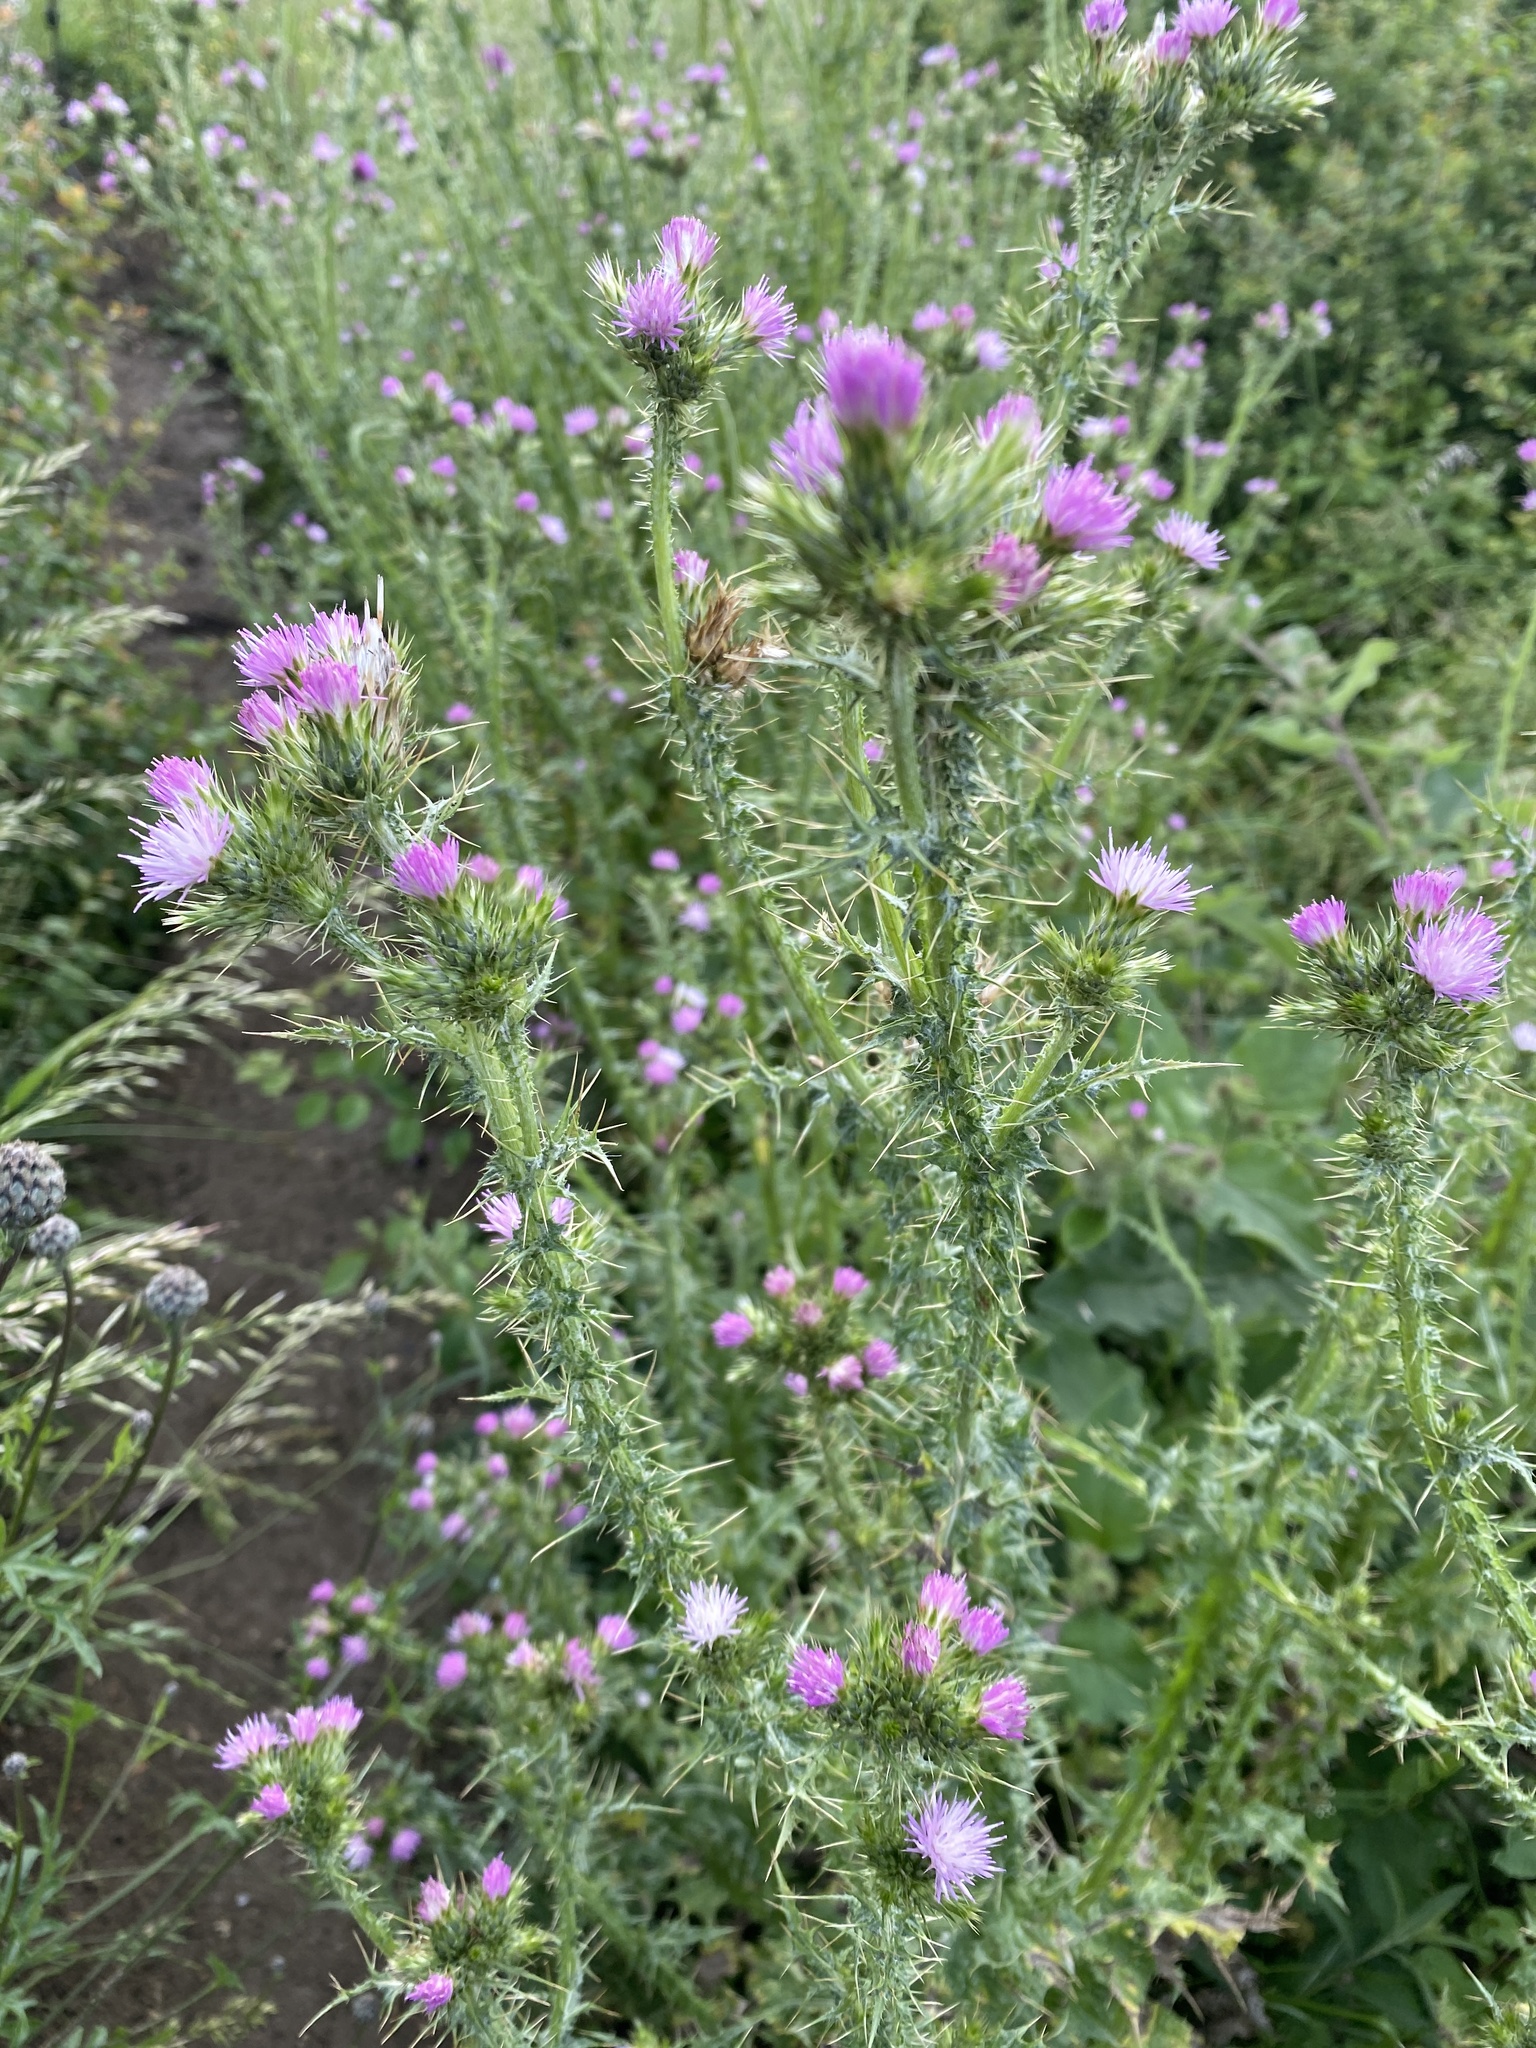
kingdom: Plantae
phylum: Tracheophyta
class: Magnoliopsida
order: Asterales
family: Asteraceae
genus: Carduus
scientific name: Carduus tenuiflorus
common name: Slender thistle
